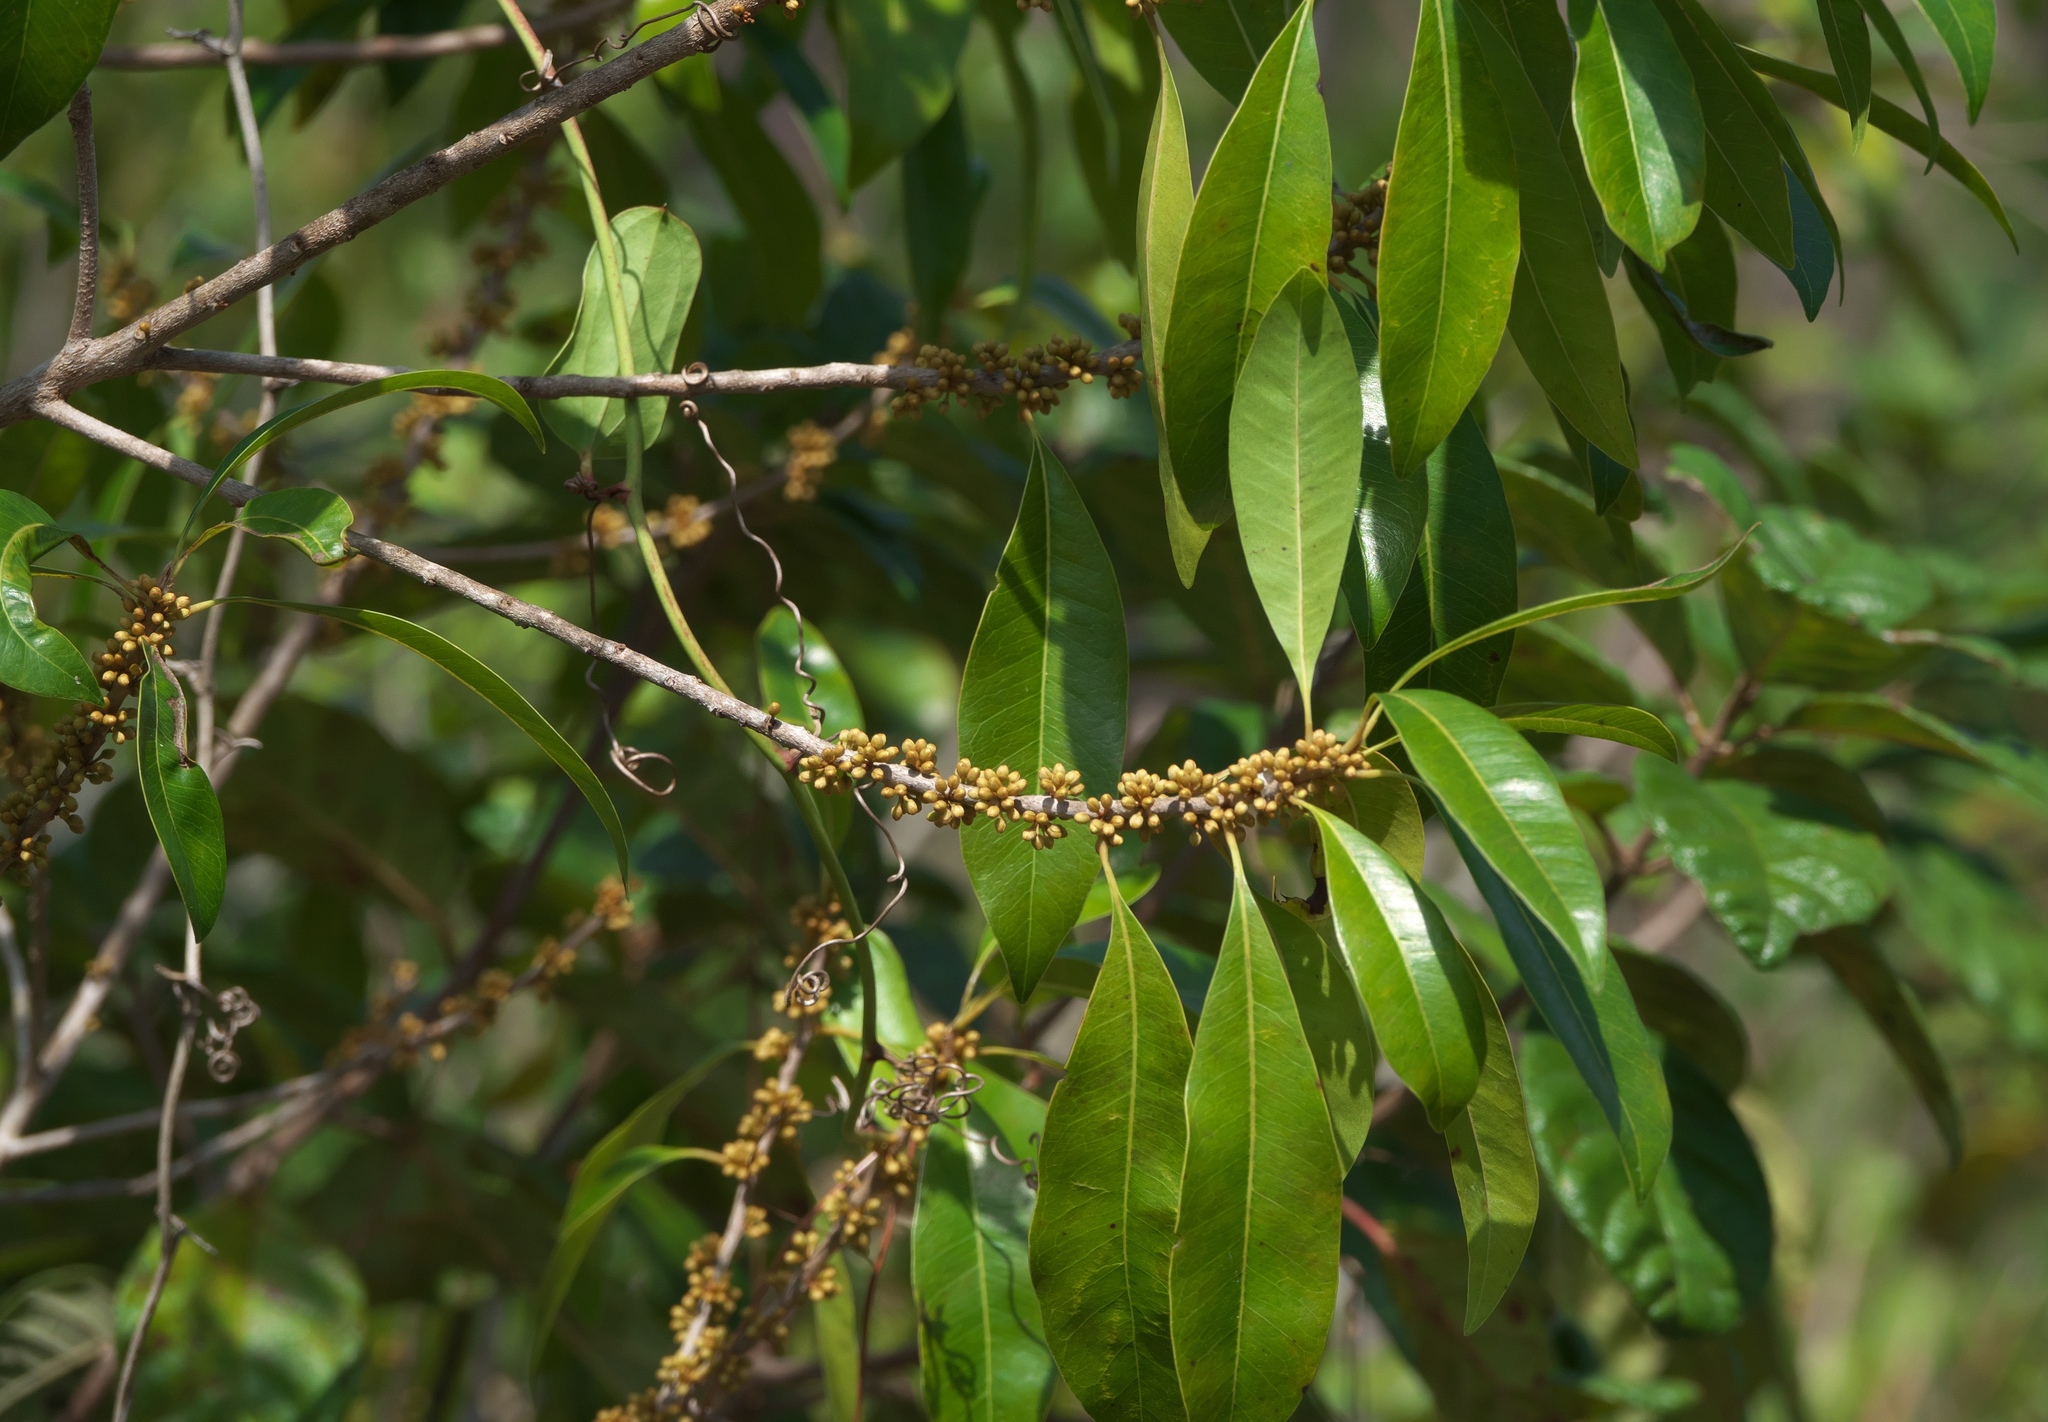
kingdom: Plantae
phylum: Tracheophyta
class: Magnoliopsida
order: Ericales
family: Sapotaceae
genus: Sideroxylon
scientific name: Sideroxylon salicifolium
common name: White bully
